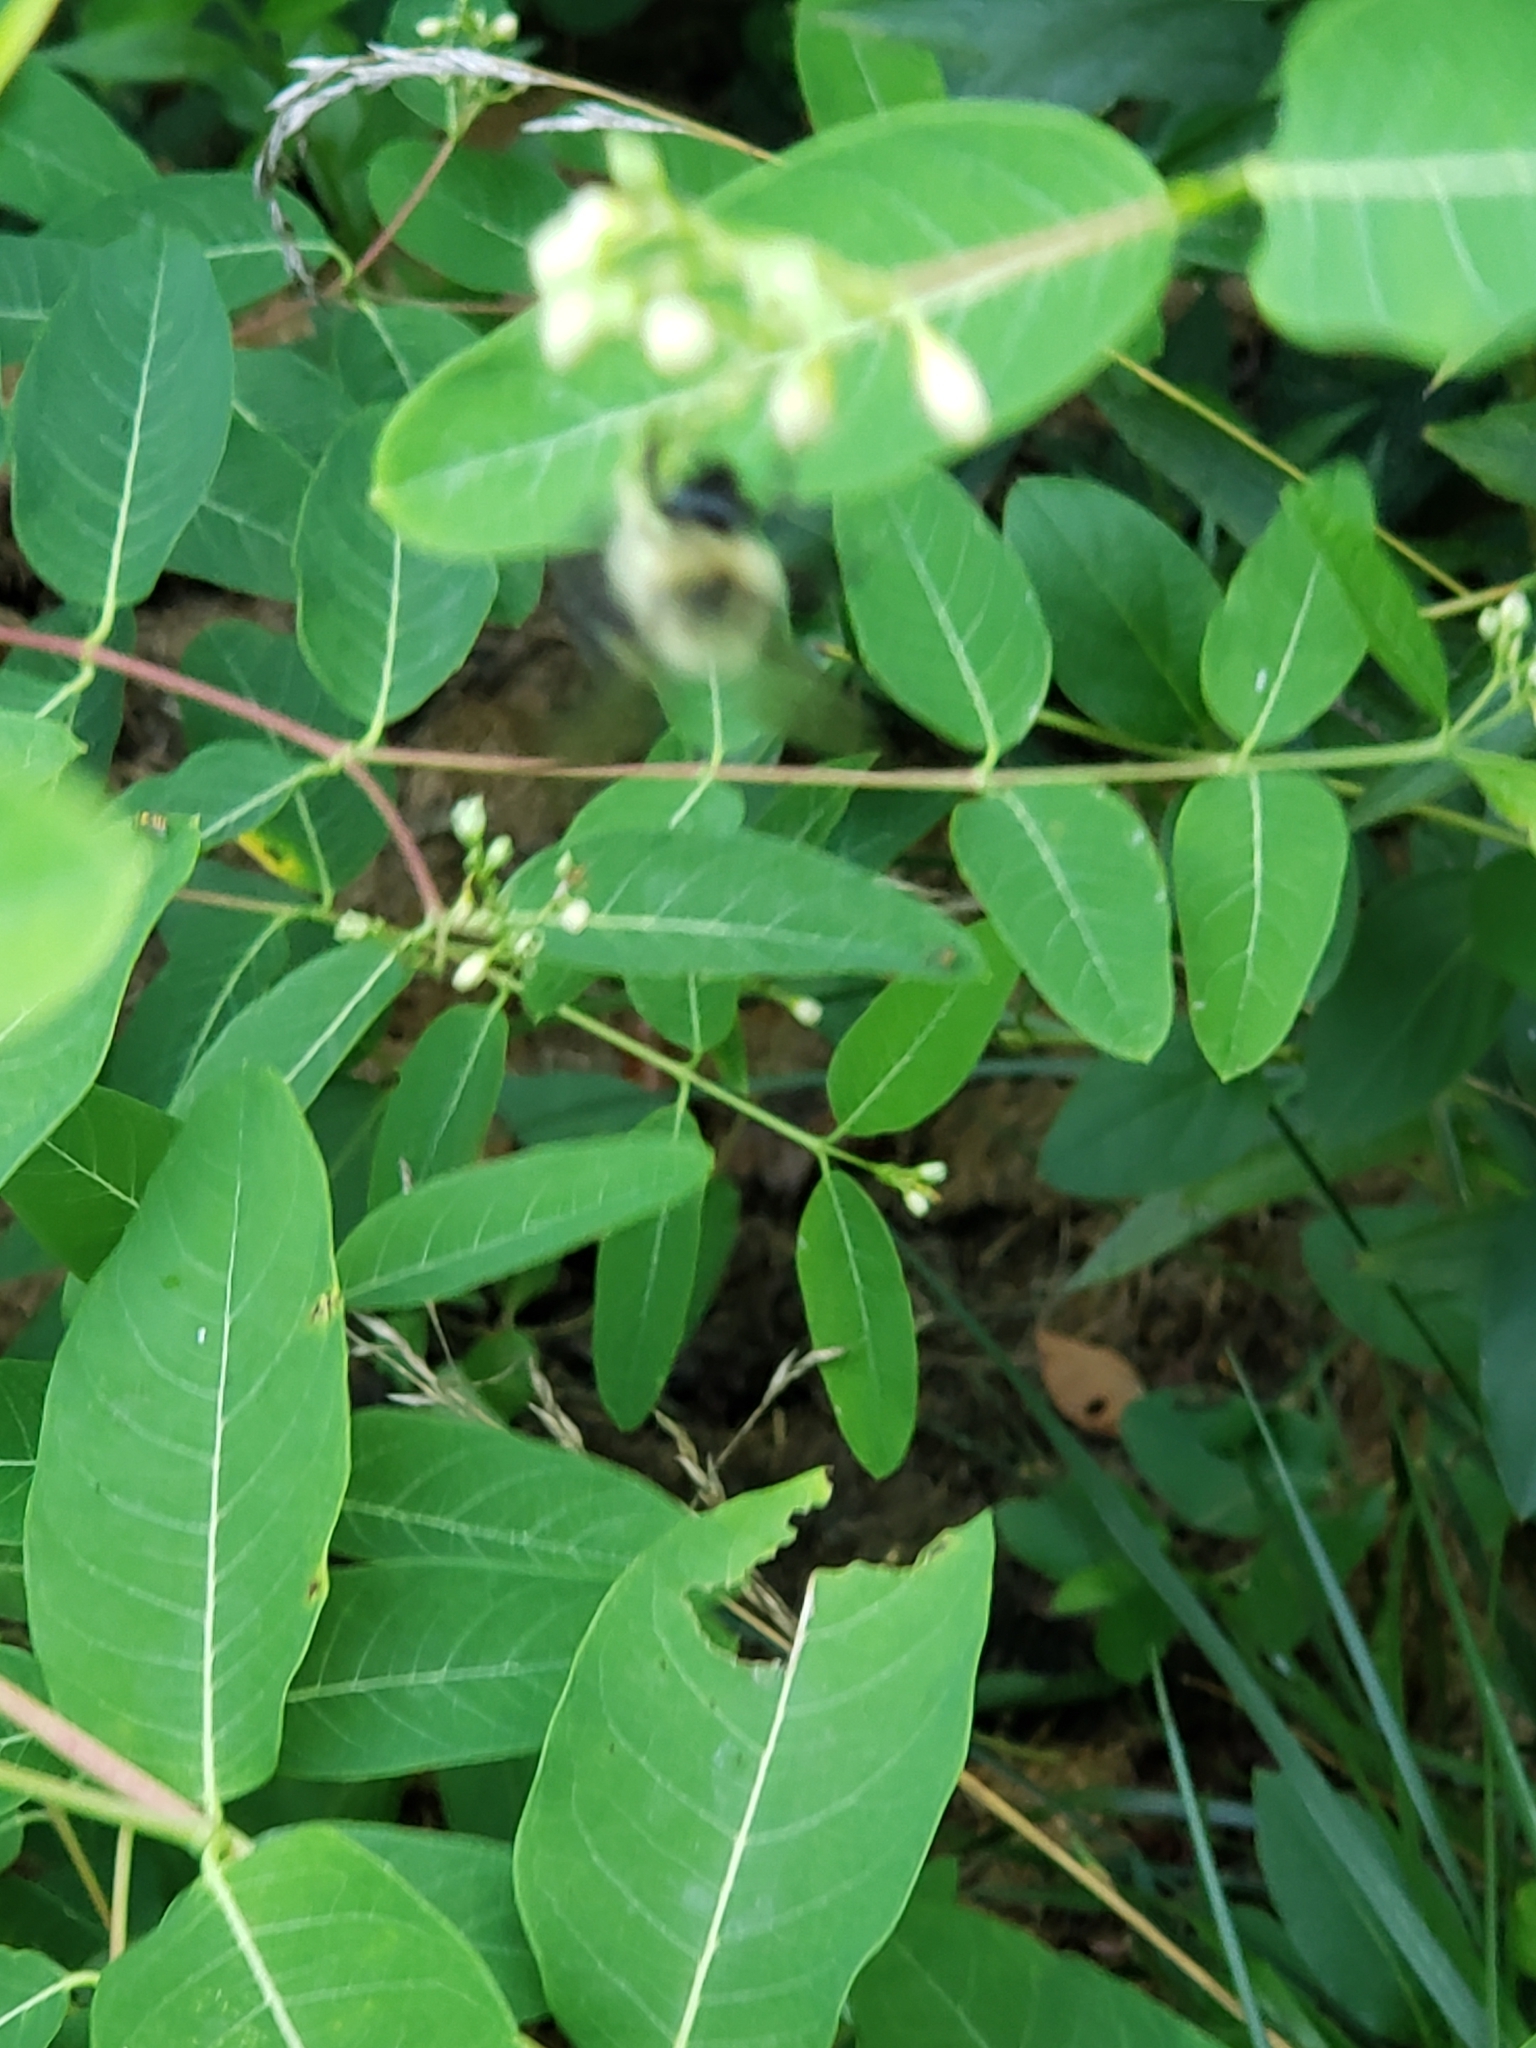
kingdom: Animalia
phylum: Arthropoda
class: Insecta
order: Hymenoptera
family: Apidae
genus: Bombus
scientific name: Bombus impatiens
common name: Common eastern bumble bee
